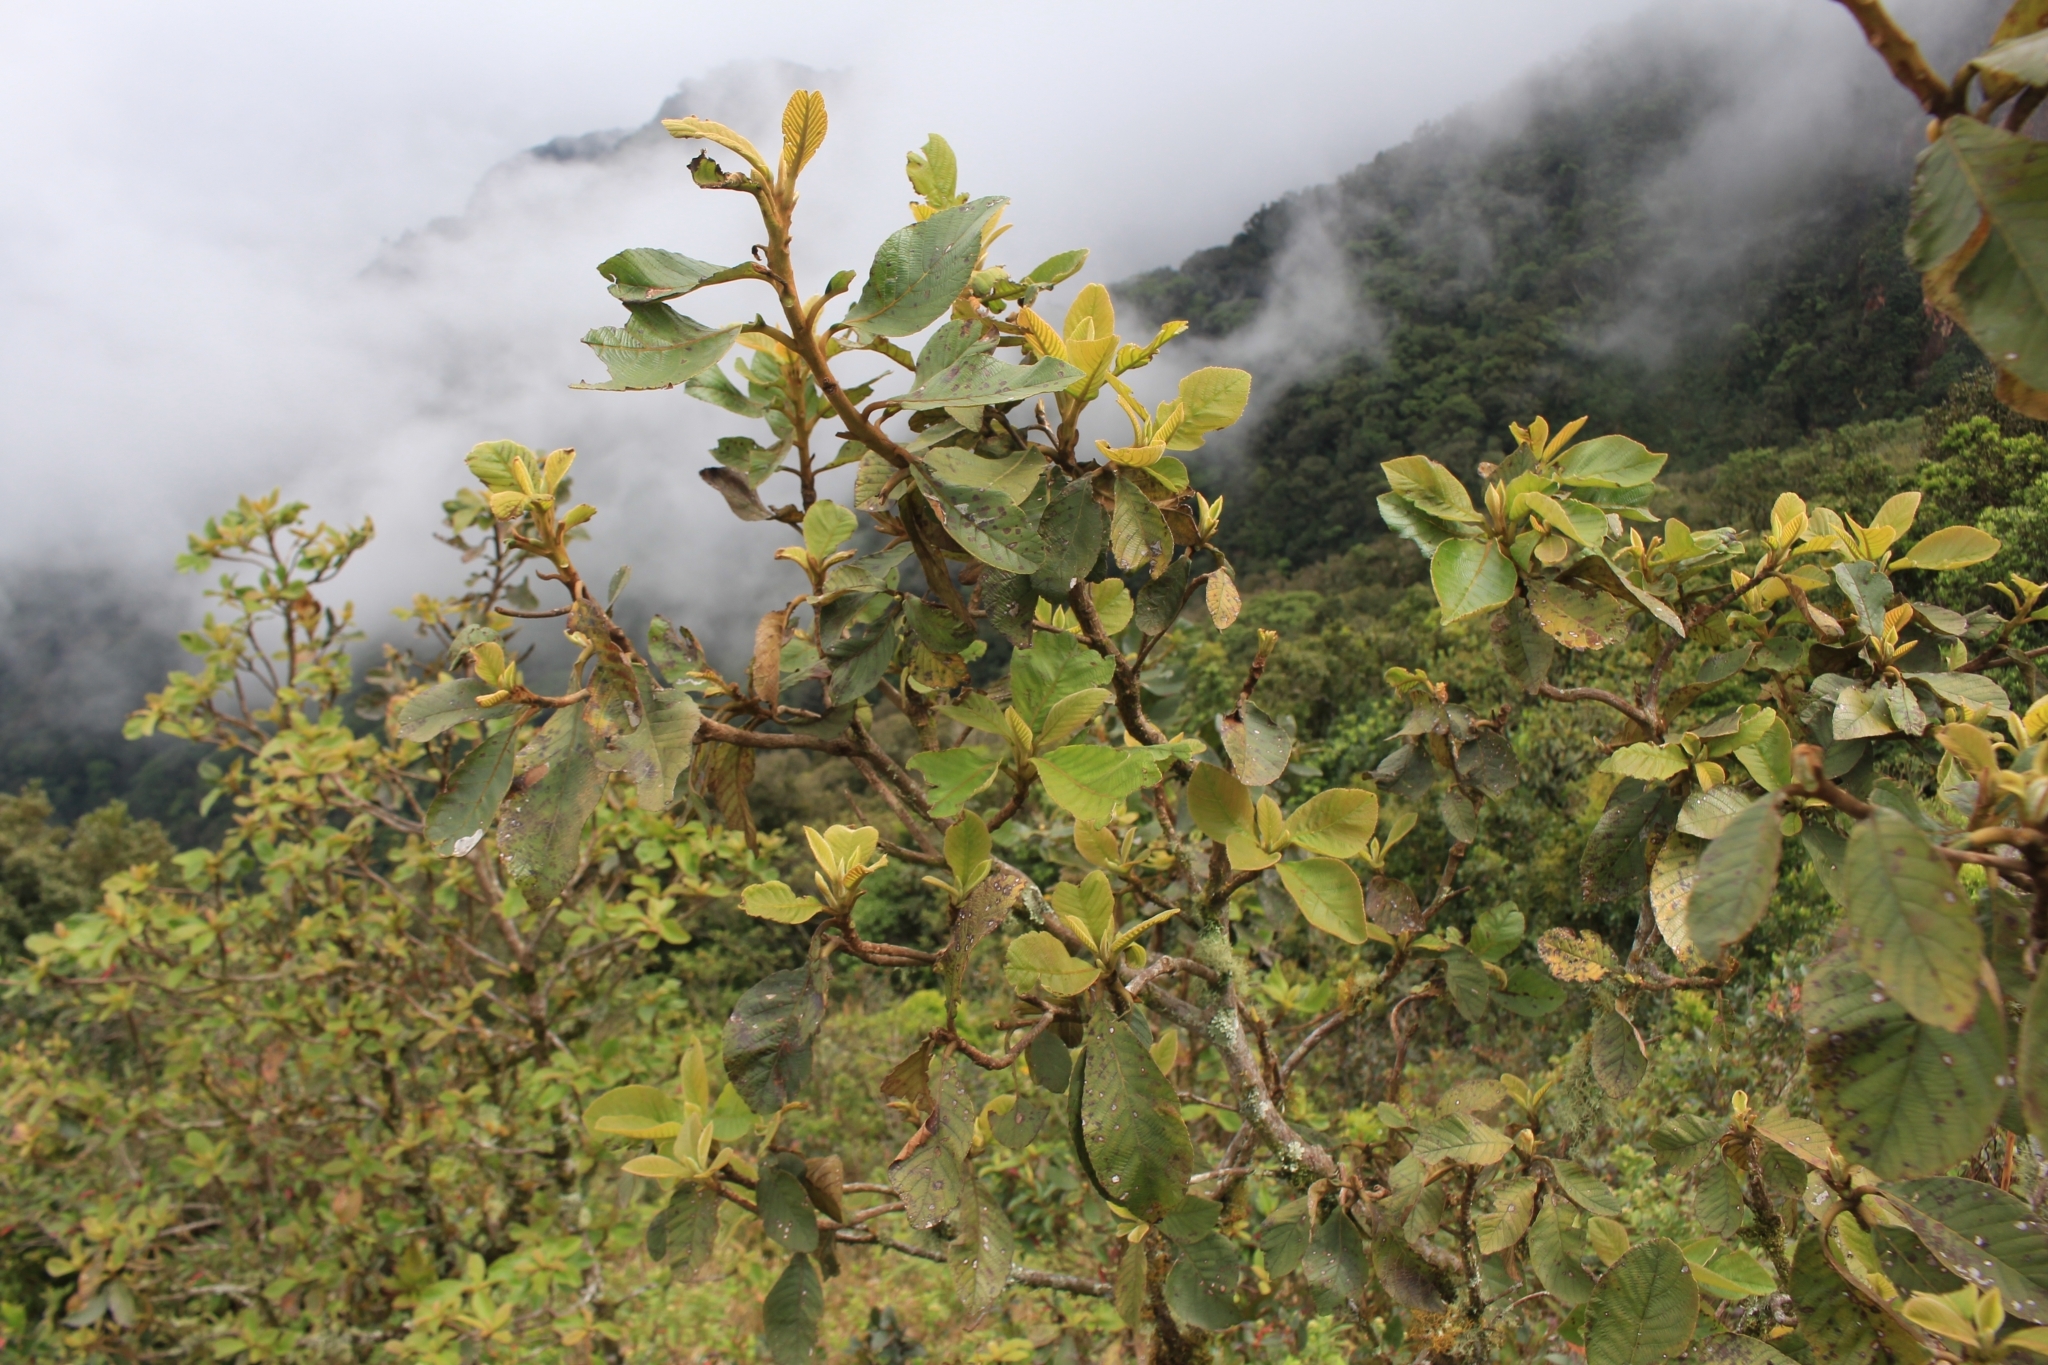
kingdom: Plantae
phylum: Tracheophyta
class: Magnoliopsida
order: Ericales
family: Ericaceae
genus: Gaultheria
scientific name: Gaultheria erecta
